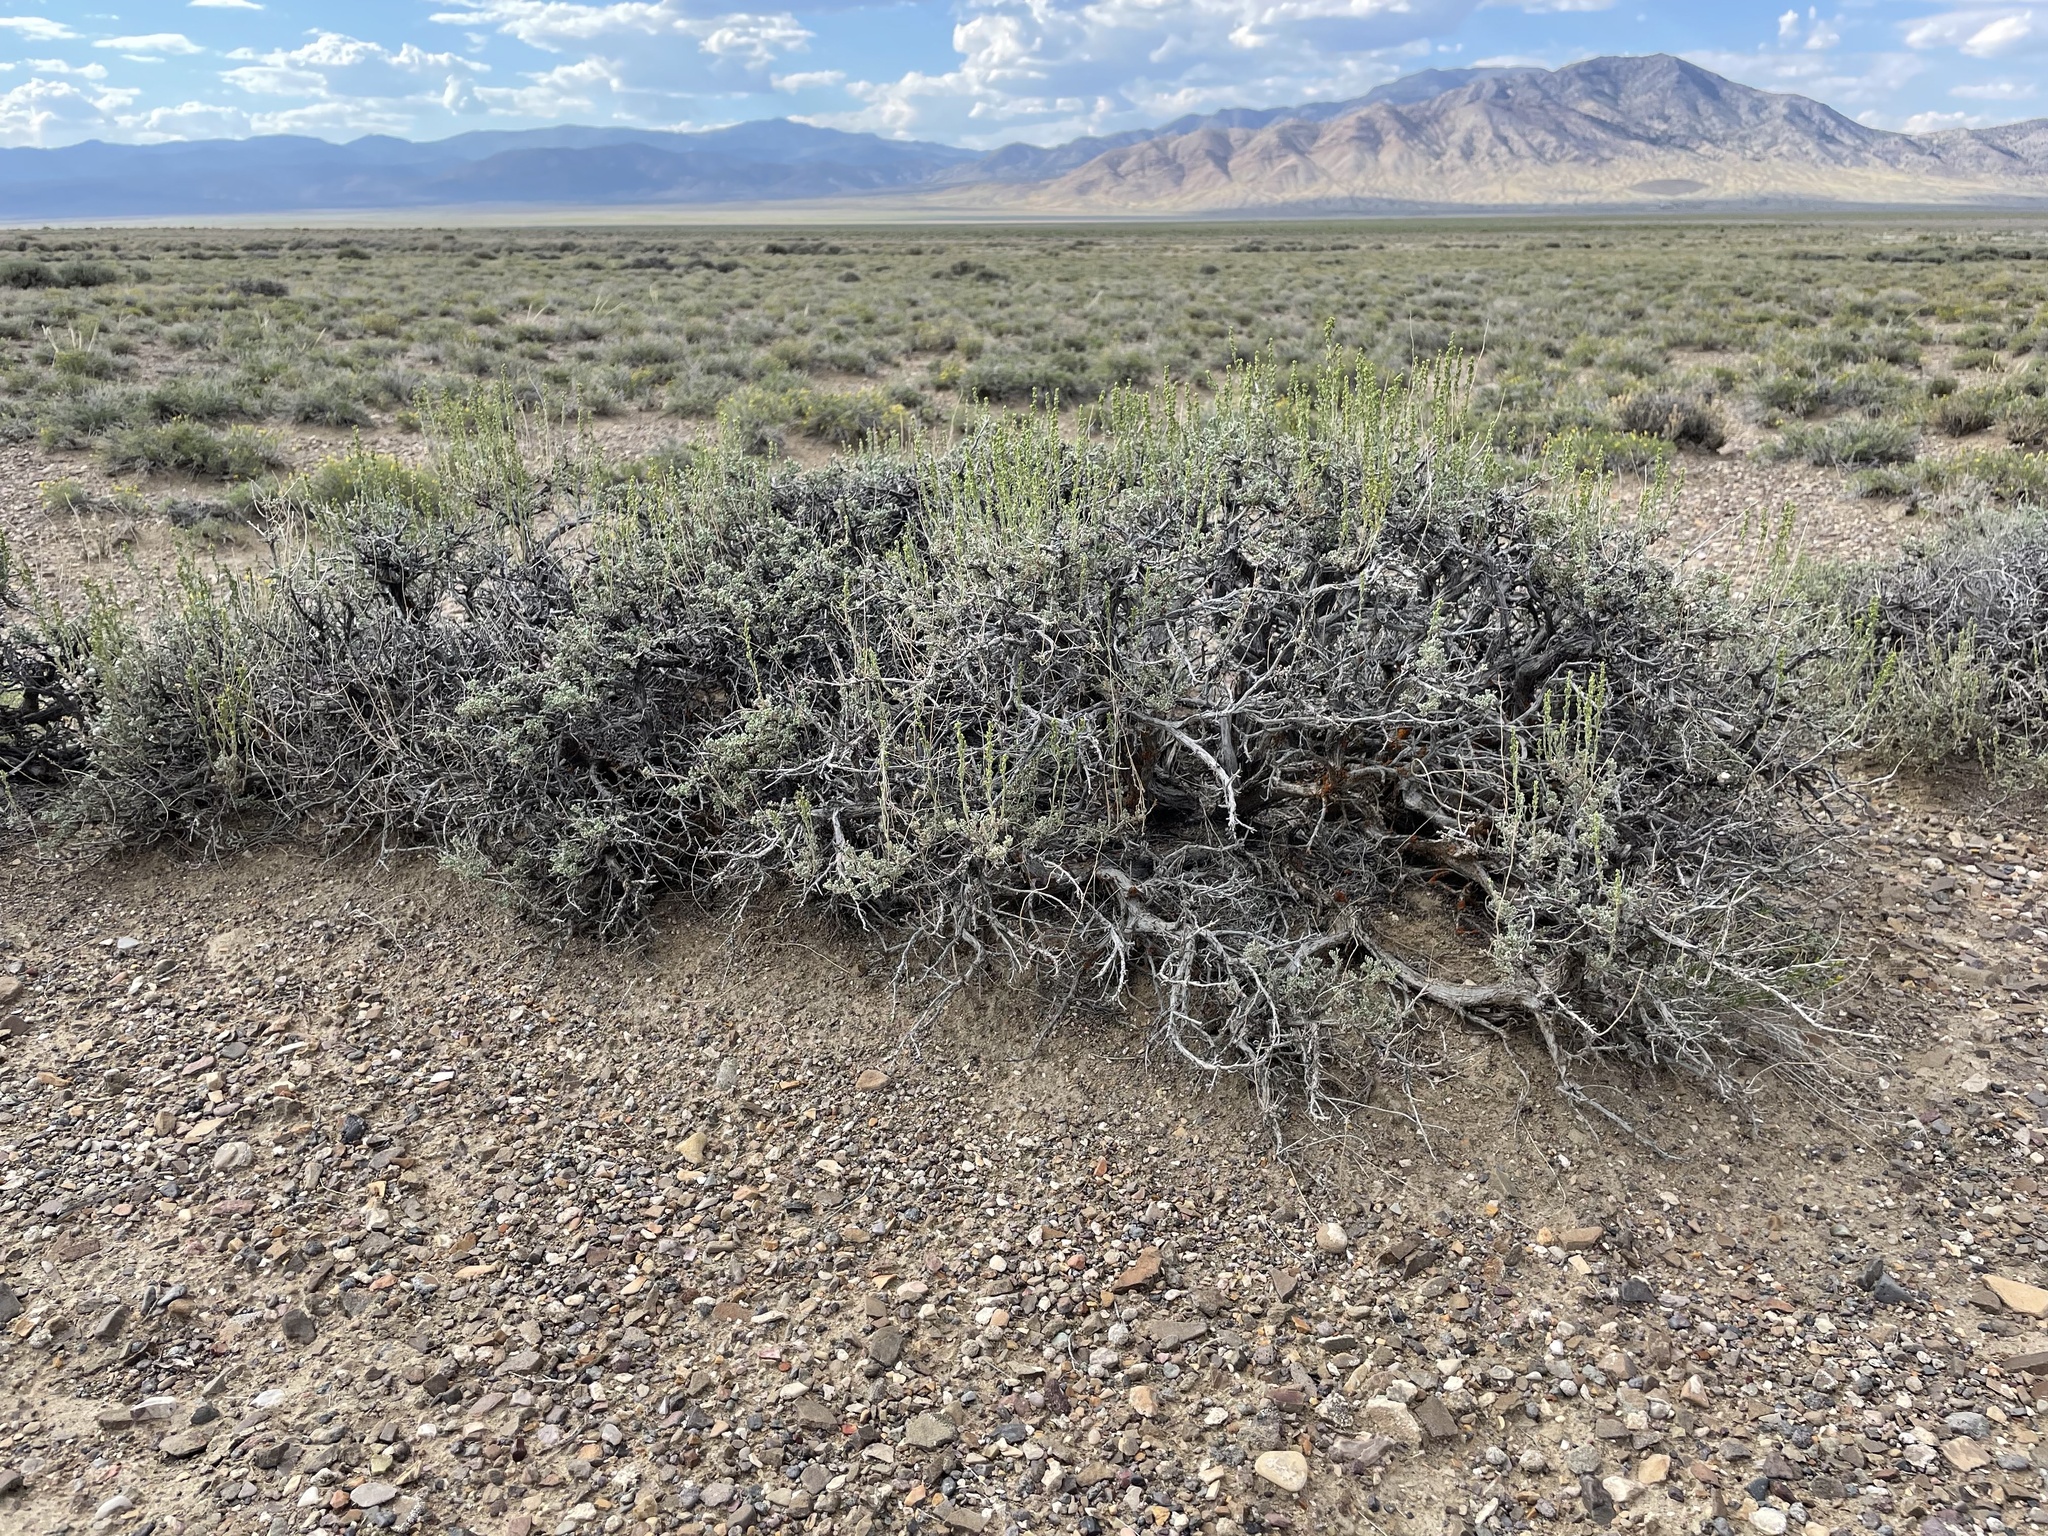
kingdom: Plantae
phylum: Tracheophyta
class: Magnoliopsida
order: Asterales
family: Asteraceae
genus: Artemisia
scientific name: Artemisia nova
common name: Black-sage
